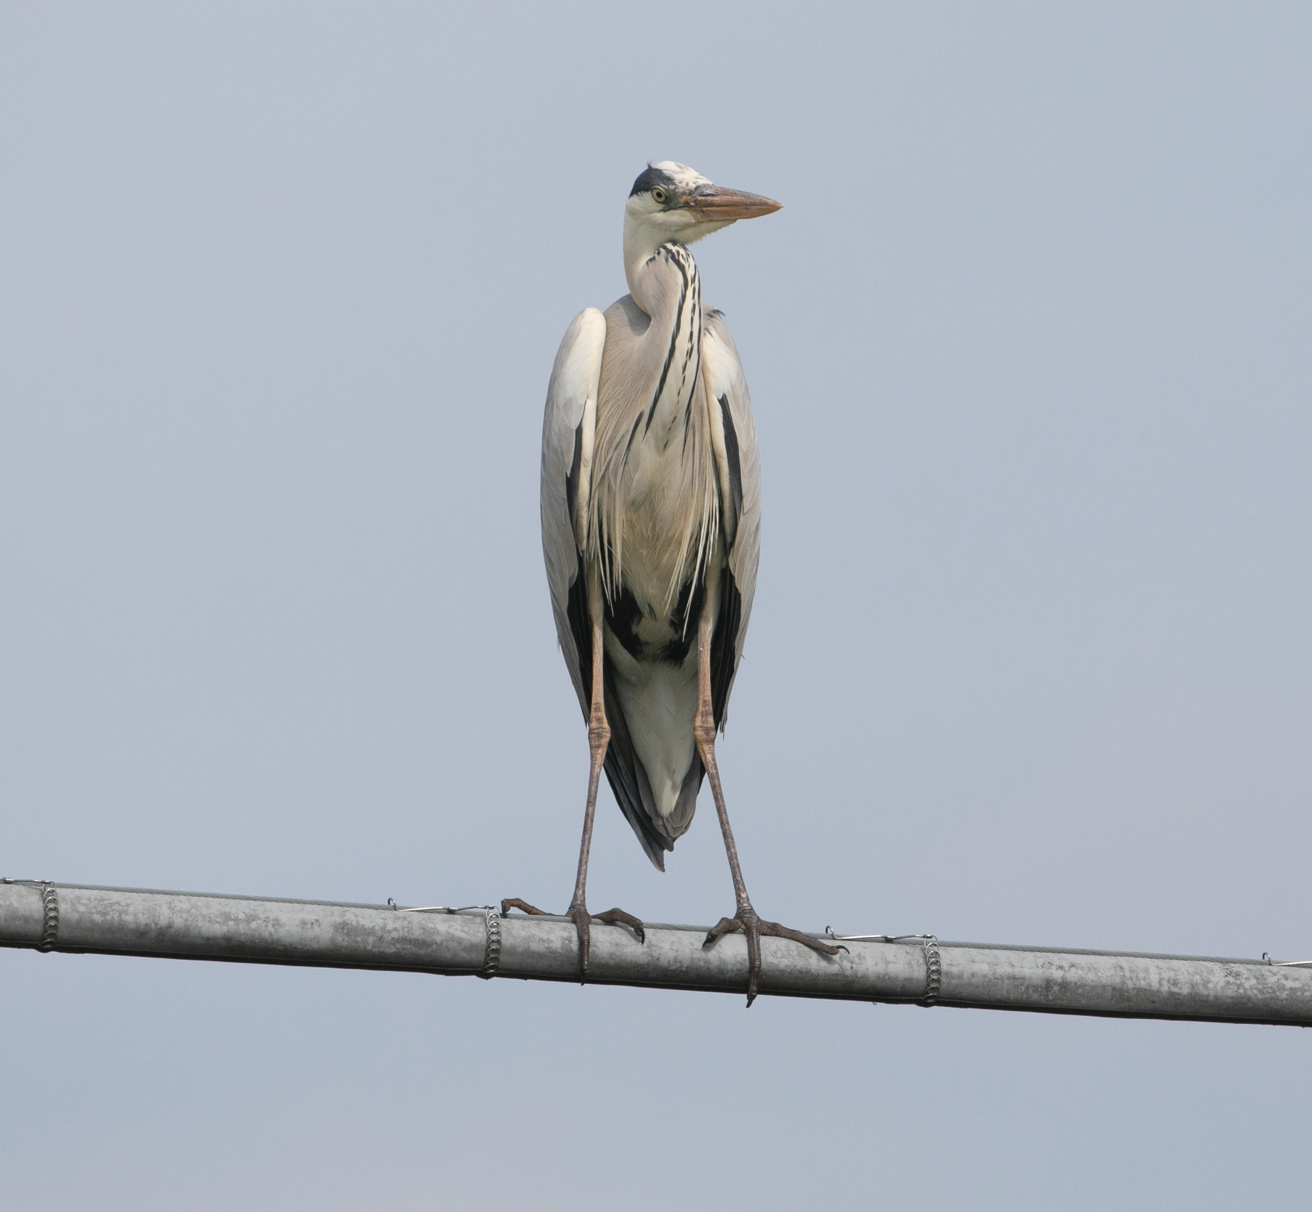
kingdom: Animalia
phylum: Chordata
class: Aves
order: Pelecaniformes
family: Ardeidae
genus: Ardea
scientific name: Ardea cinerea
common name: Grey heron
